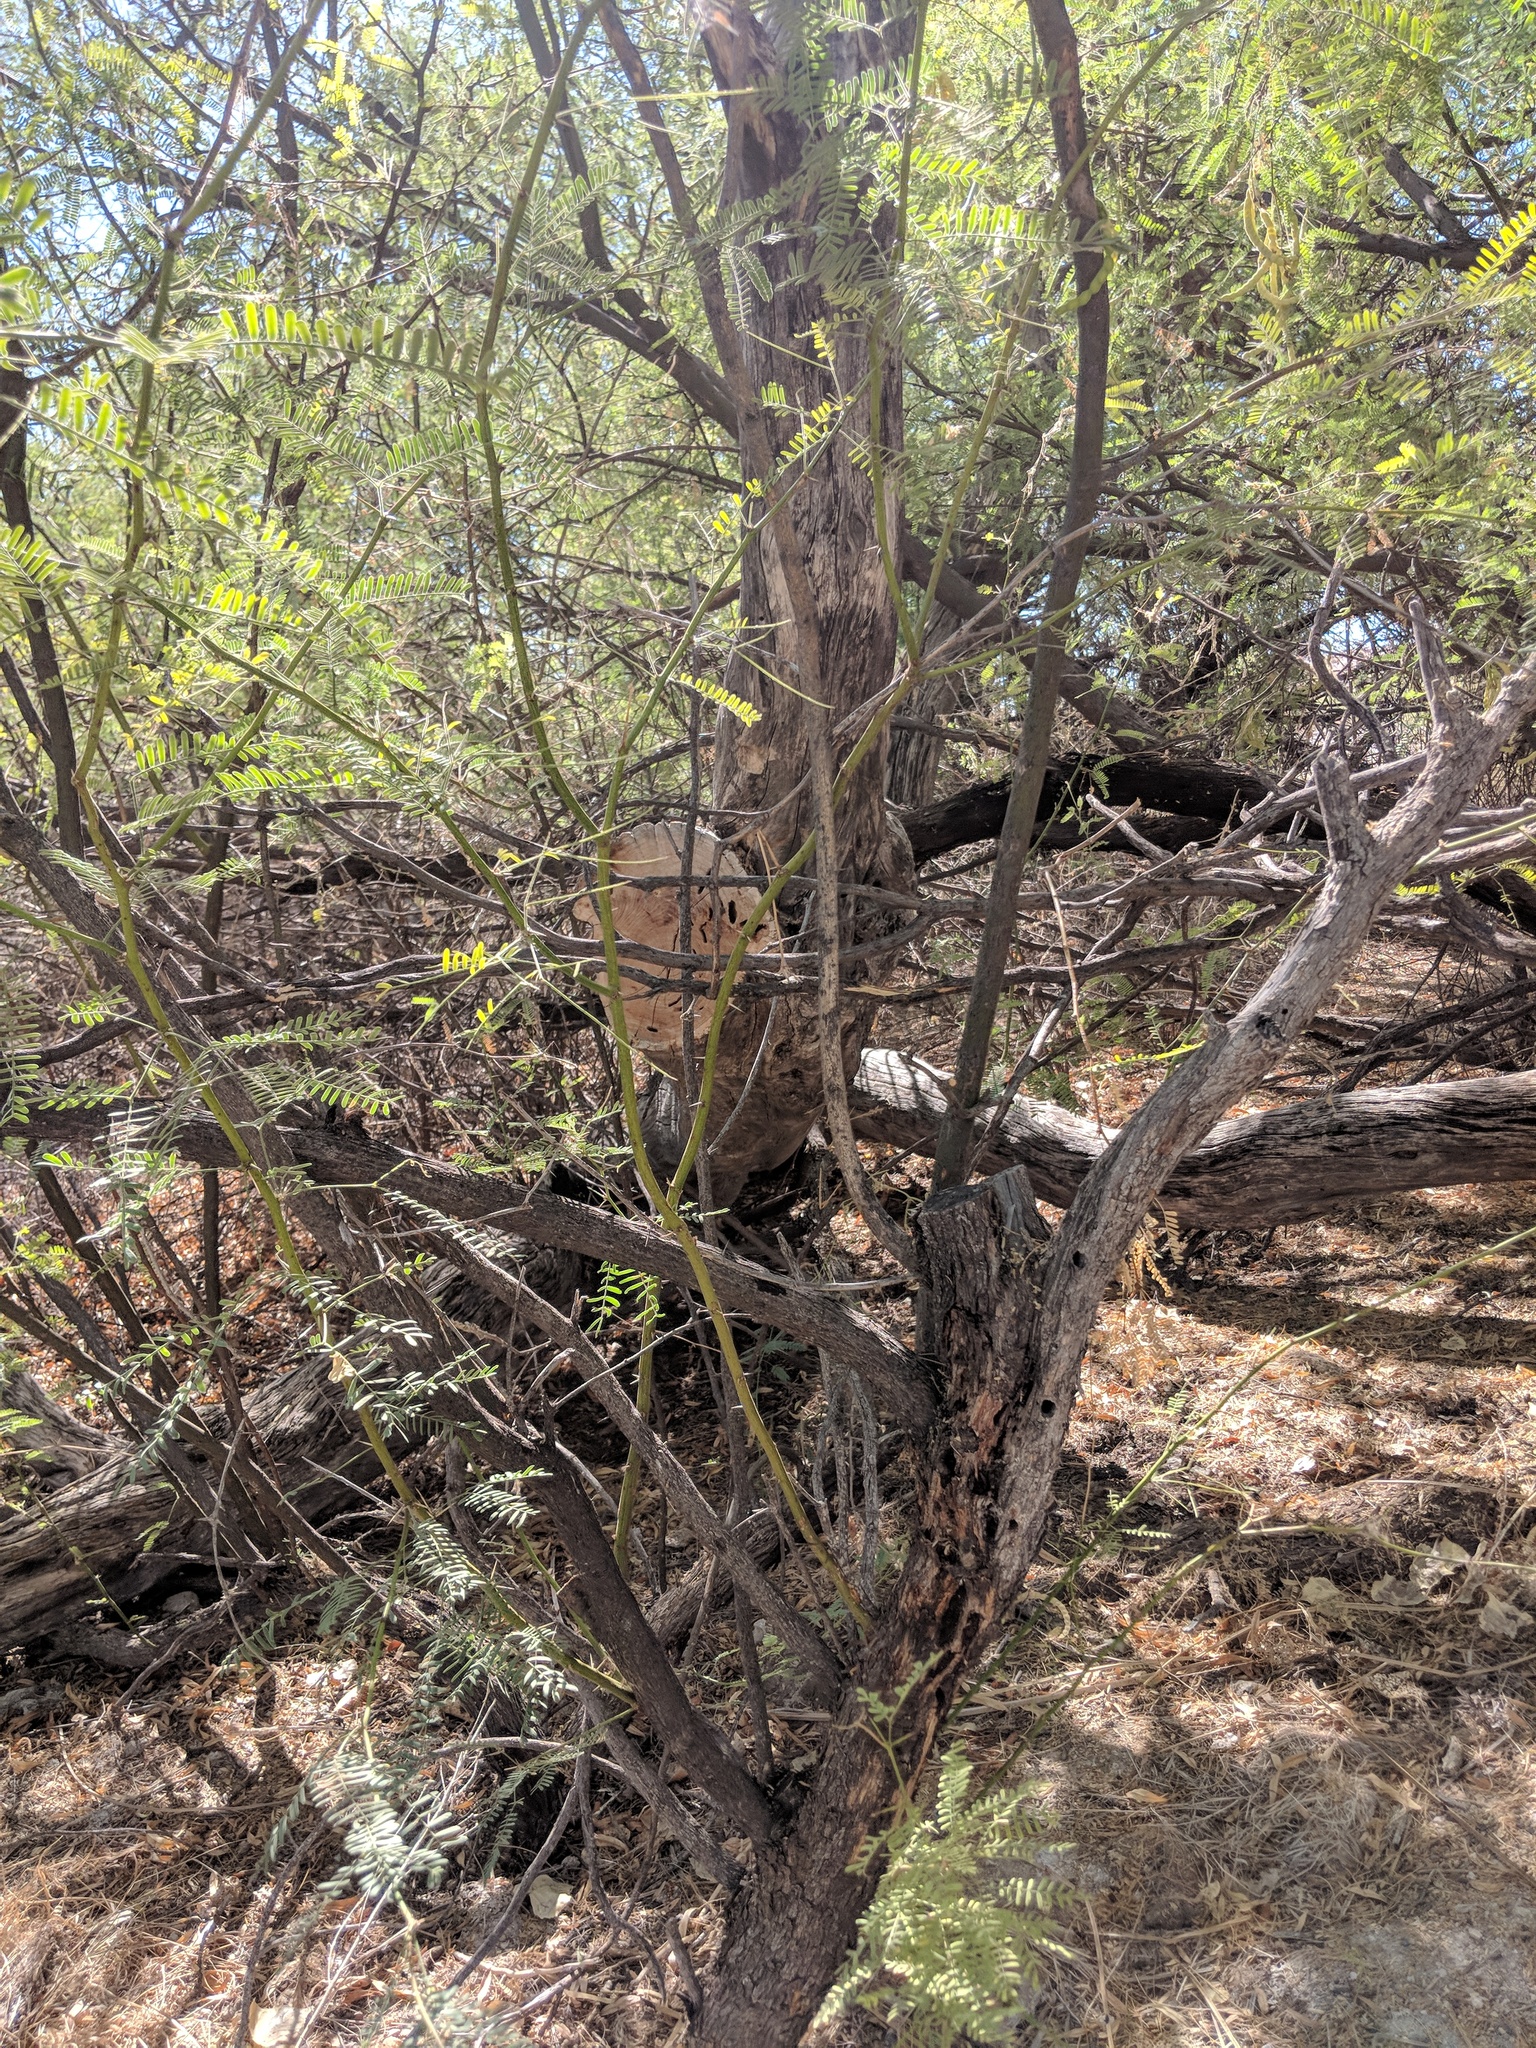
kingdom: Plantae
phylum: Tracheophyta
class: Magnoliopsida
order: Fabales
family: Fabaceae
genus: Prosopis
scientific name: Prosopis pubescens
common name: Screw-bean
